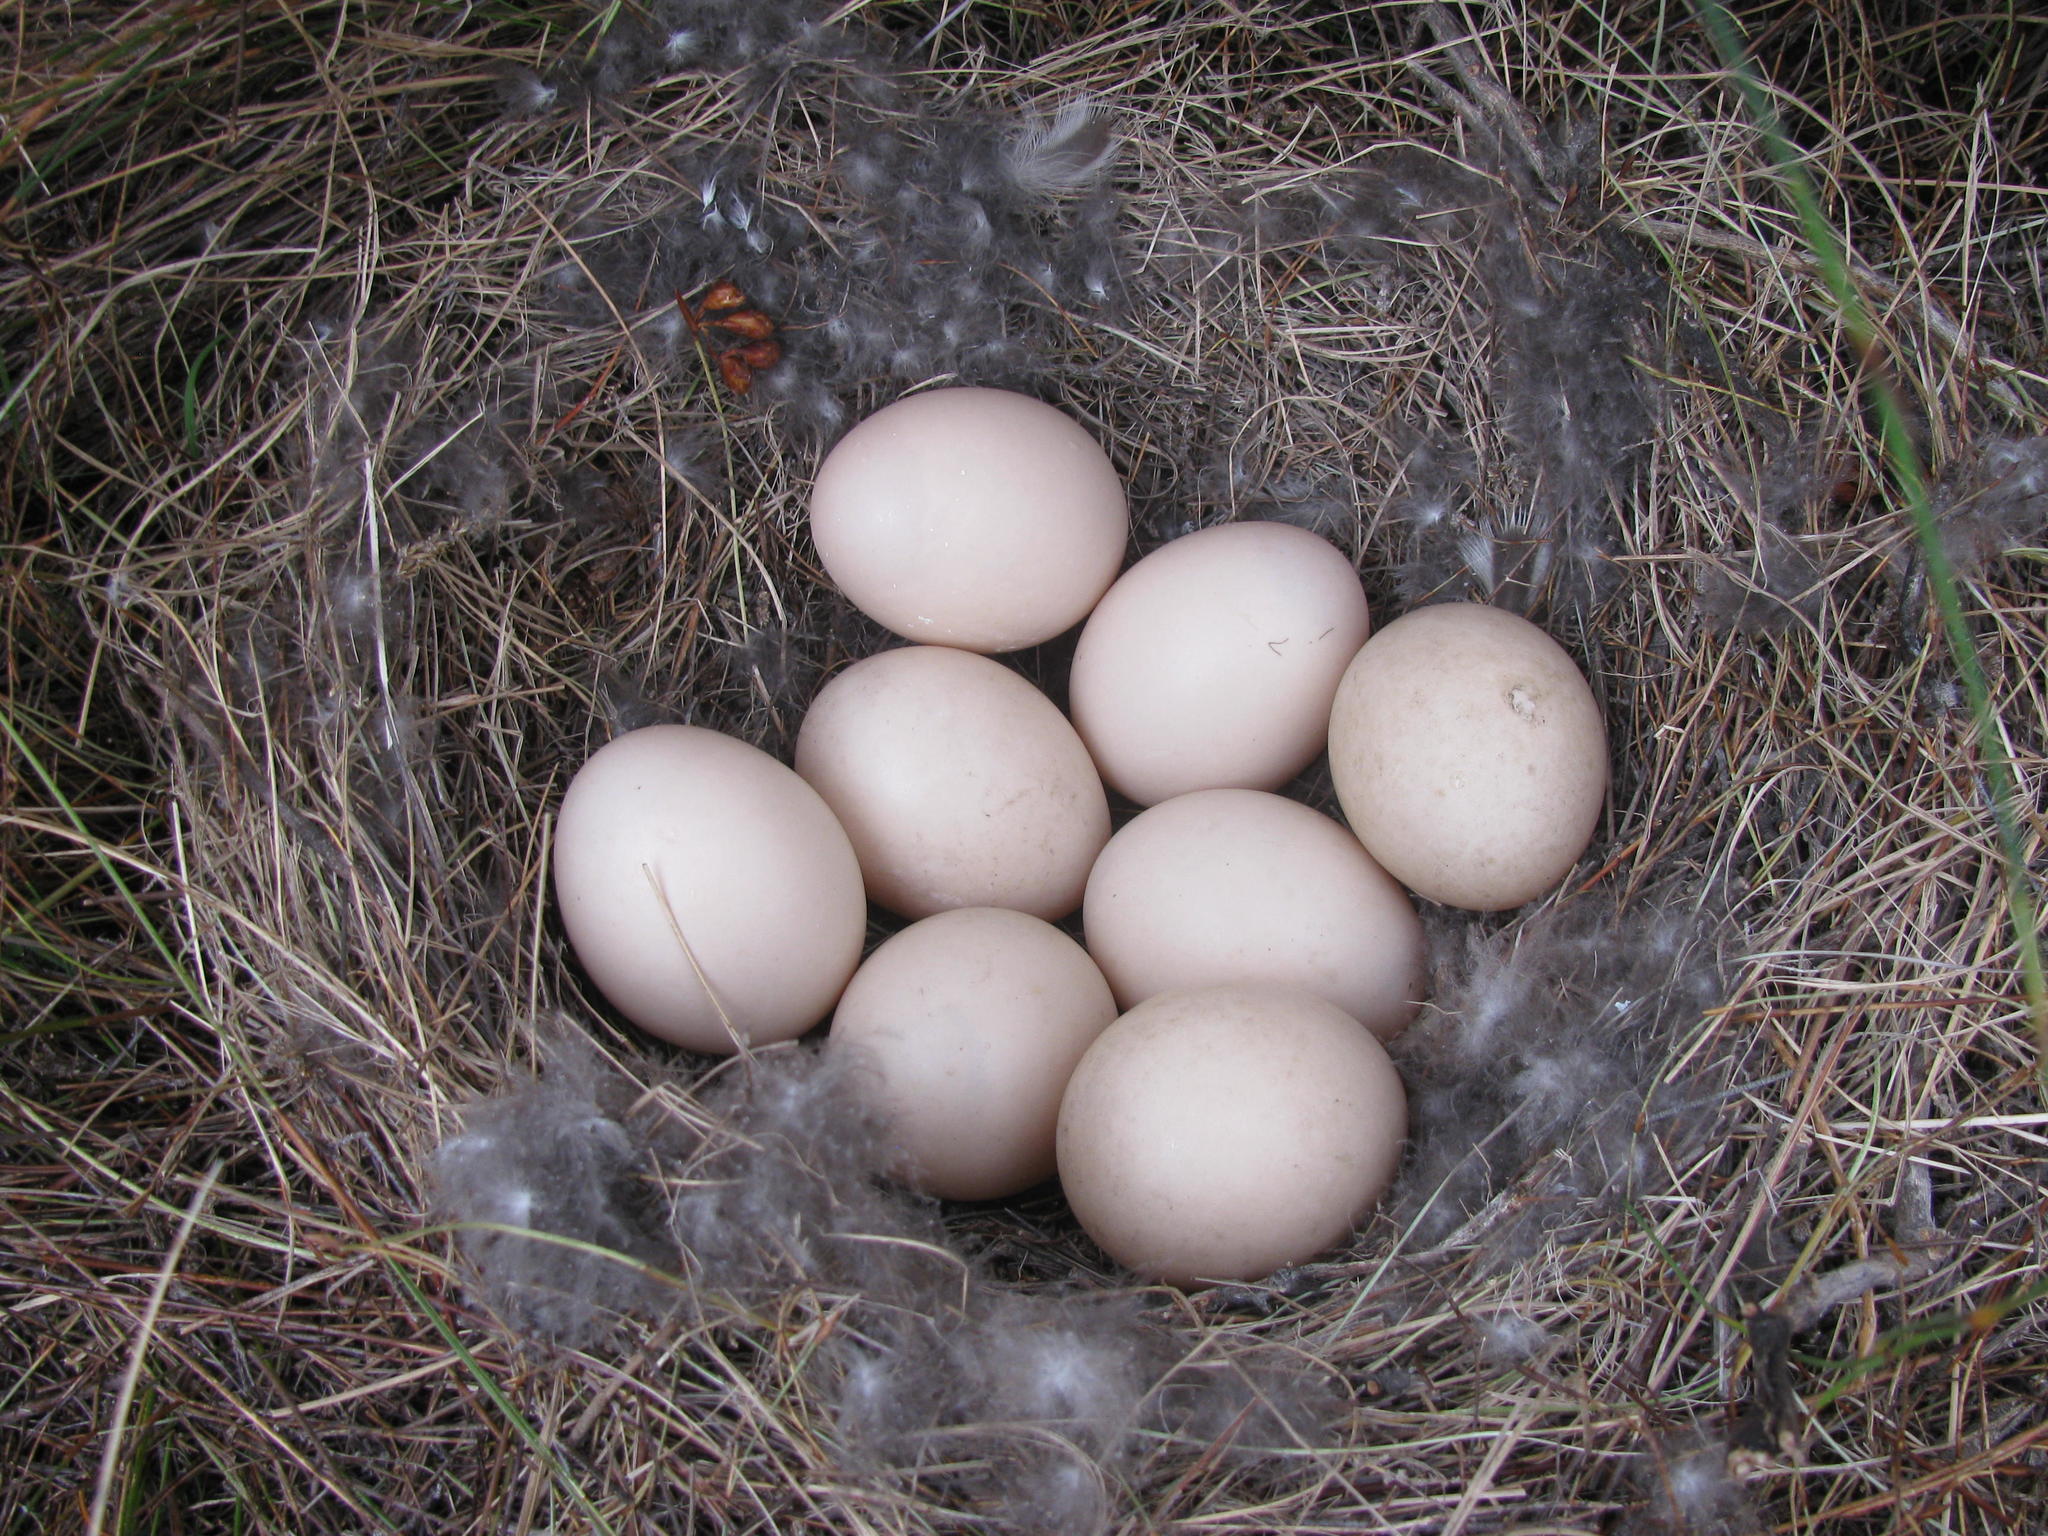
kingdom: Animalia
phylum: Chordata
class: Aves
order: Anseriformes
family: Anatidae
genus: Anas
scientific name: Anas undulata
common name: Yellow-billed duck
